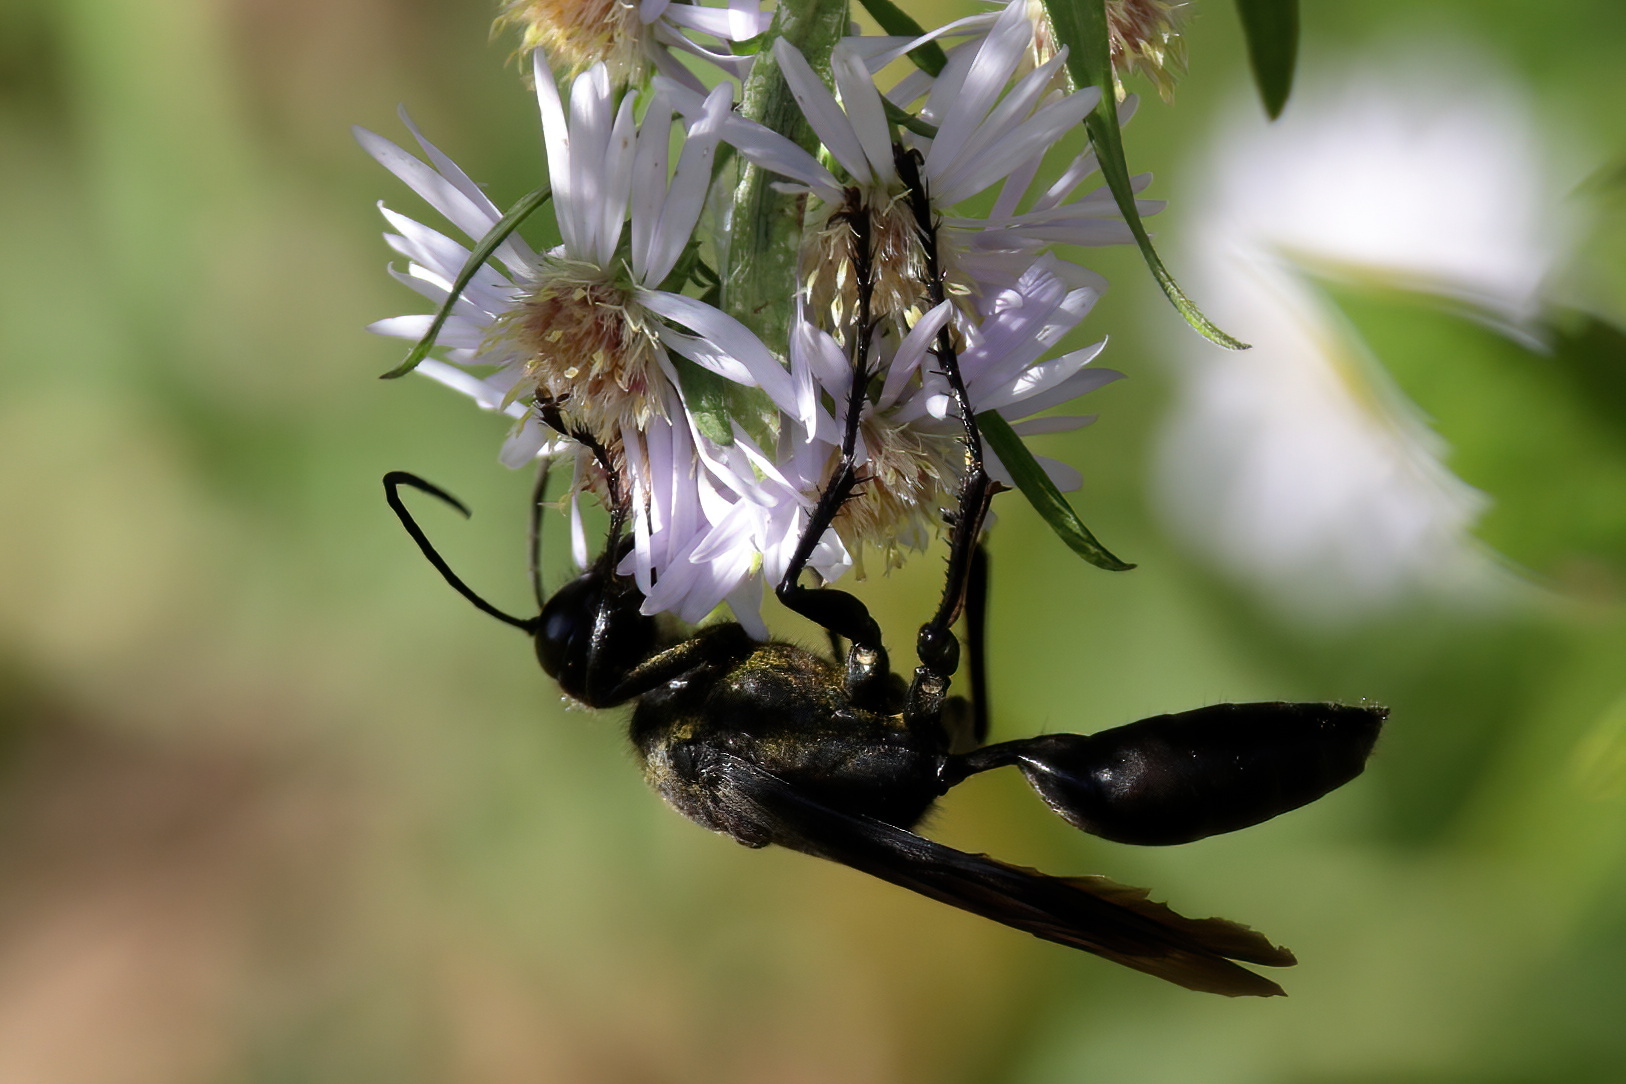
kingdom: Animalia
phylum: Arthropoda
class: Insecta
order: Hymenoptera
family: Sphecidae
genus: Sphex
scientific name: Sphex pensylvanicus
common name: Great black digger wasp
